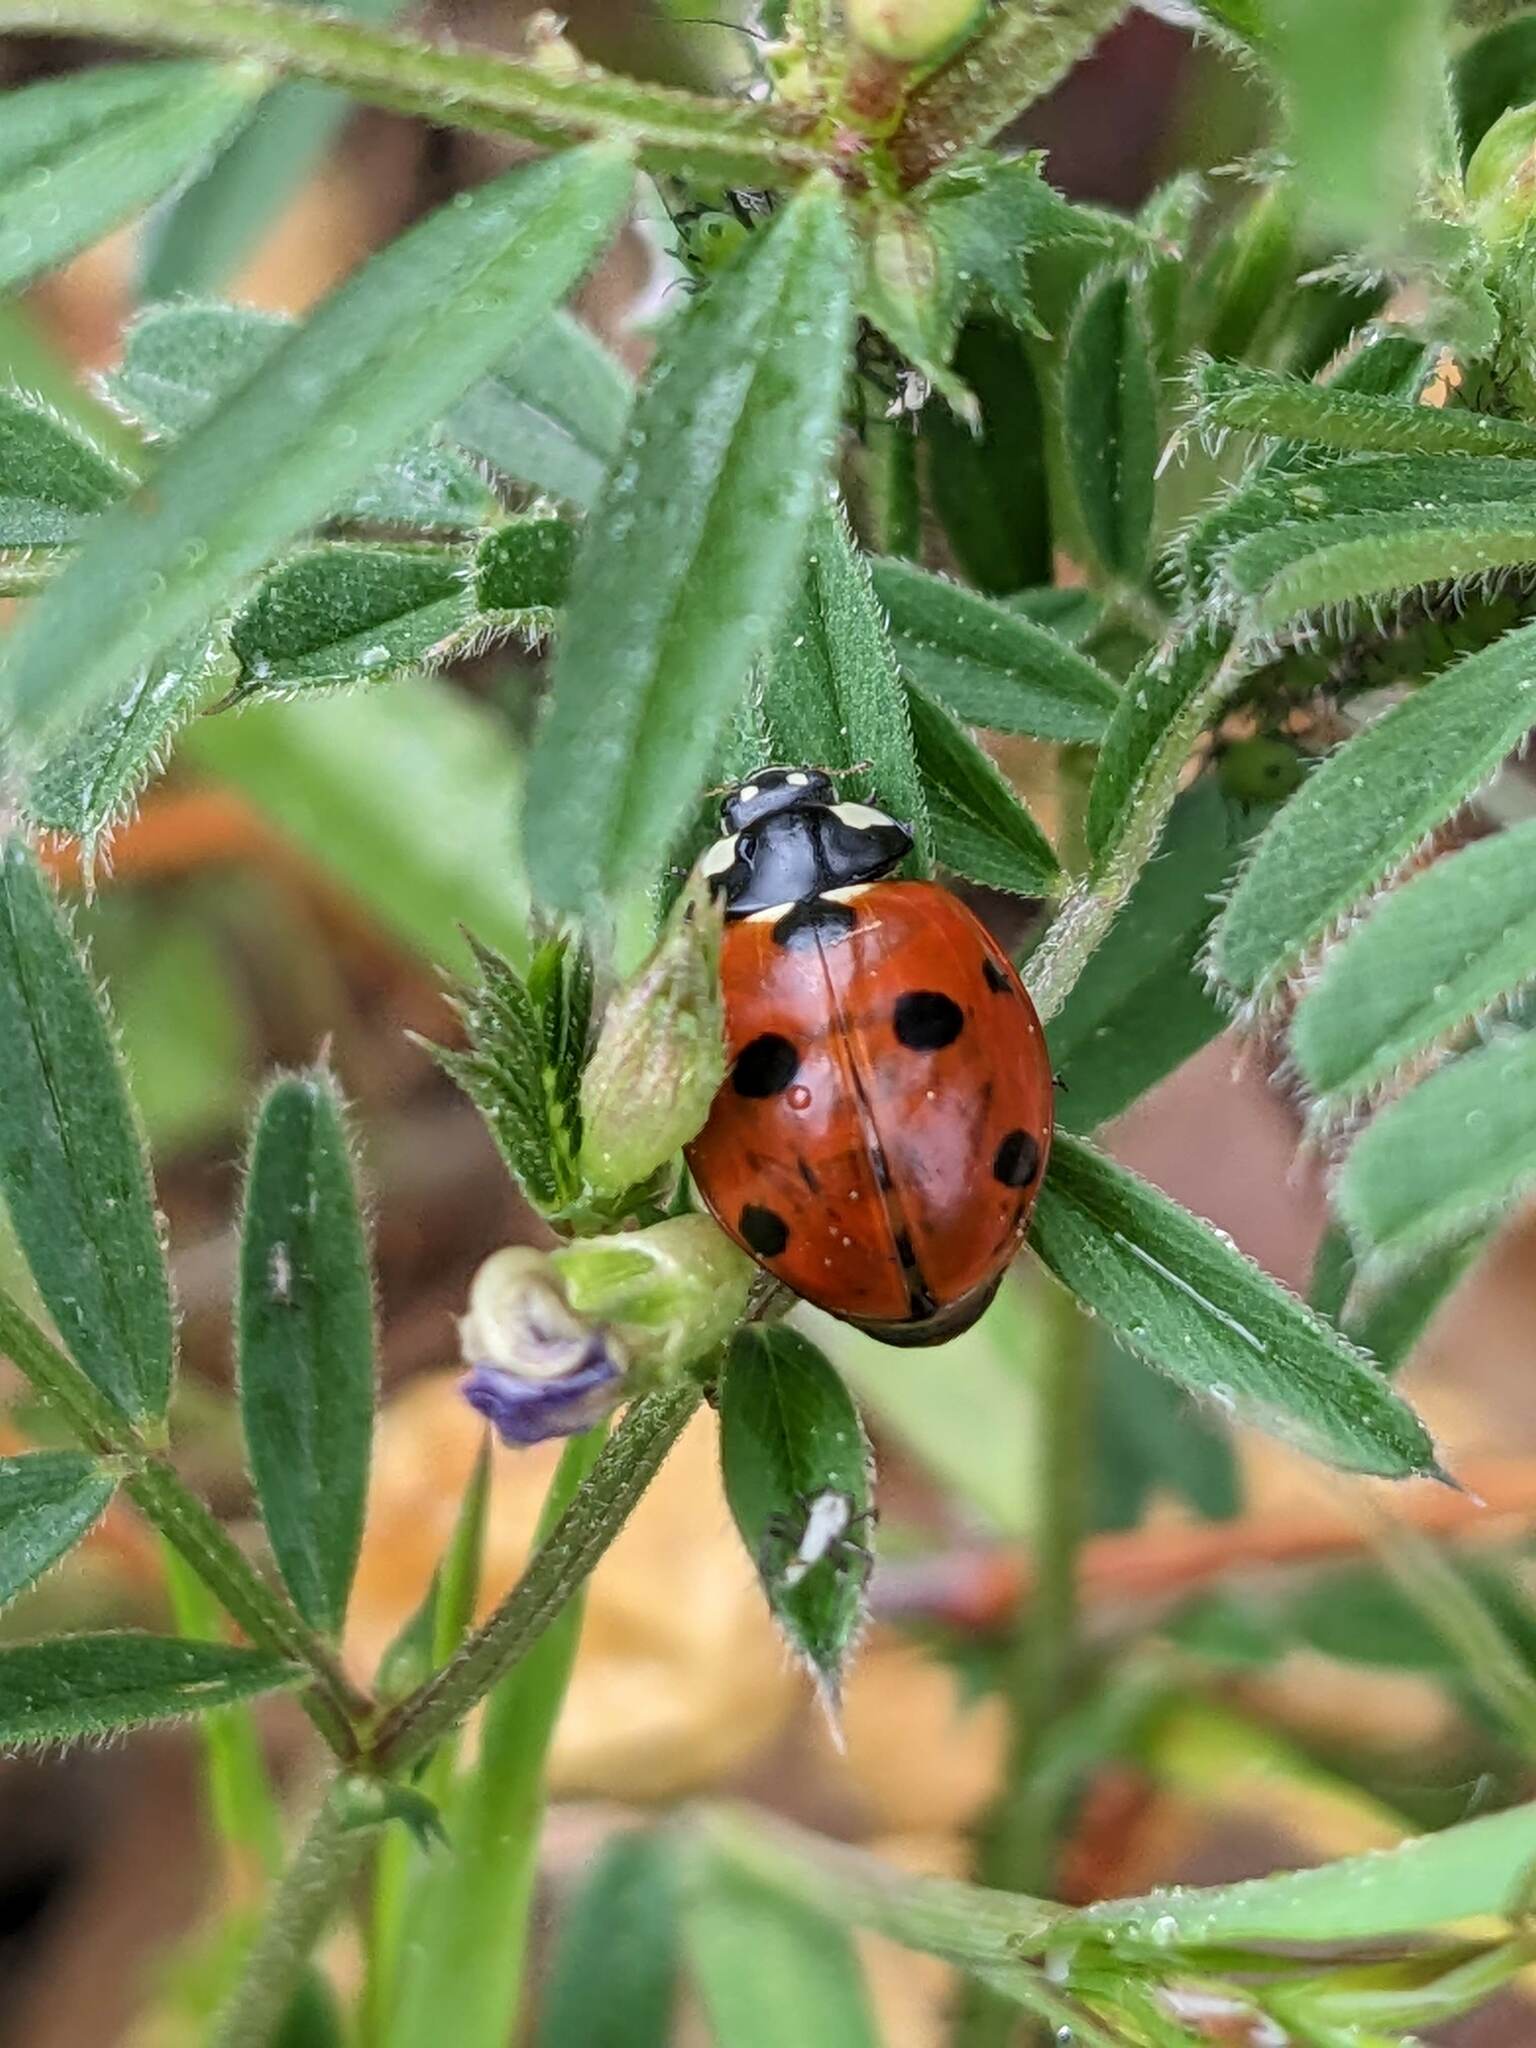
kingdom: Animalia
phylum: Arthropoda
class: Insecta
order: Coleoptera
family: Coccinellidae
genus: Coccinella
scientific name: Coccinella septempunctata
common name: Sevenspotted lady beetle
